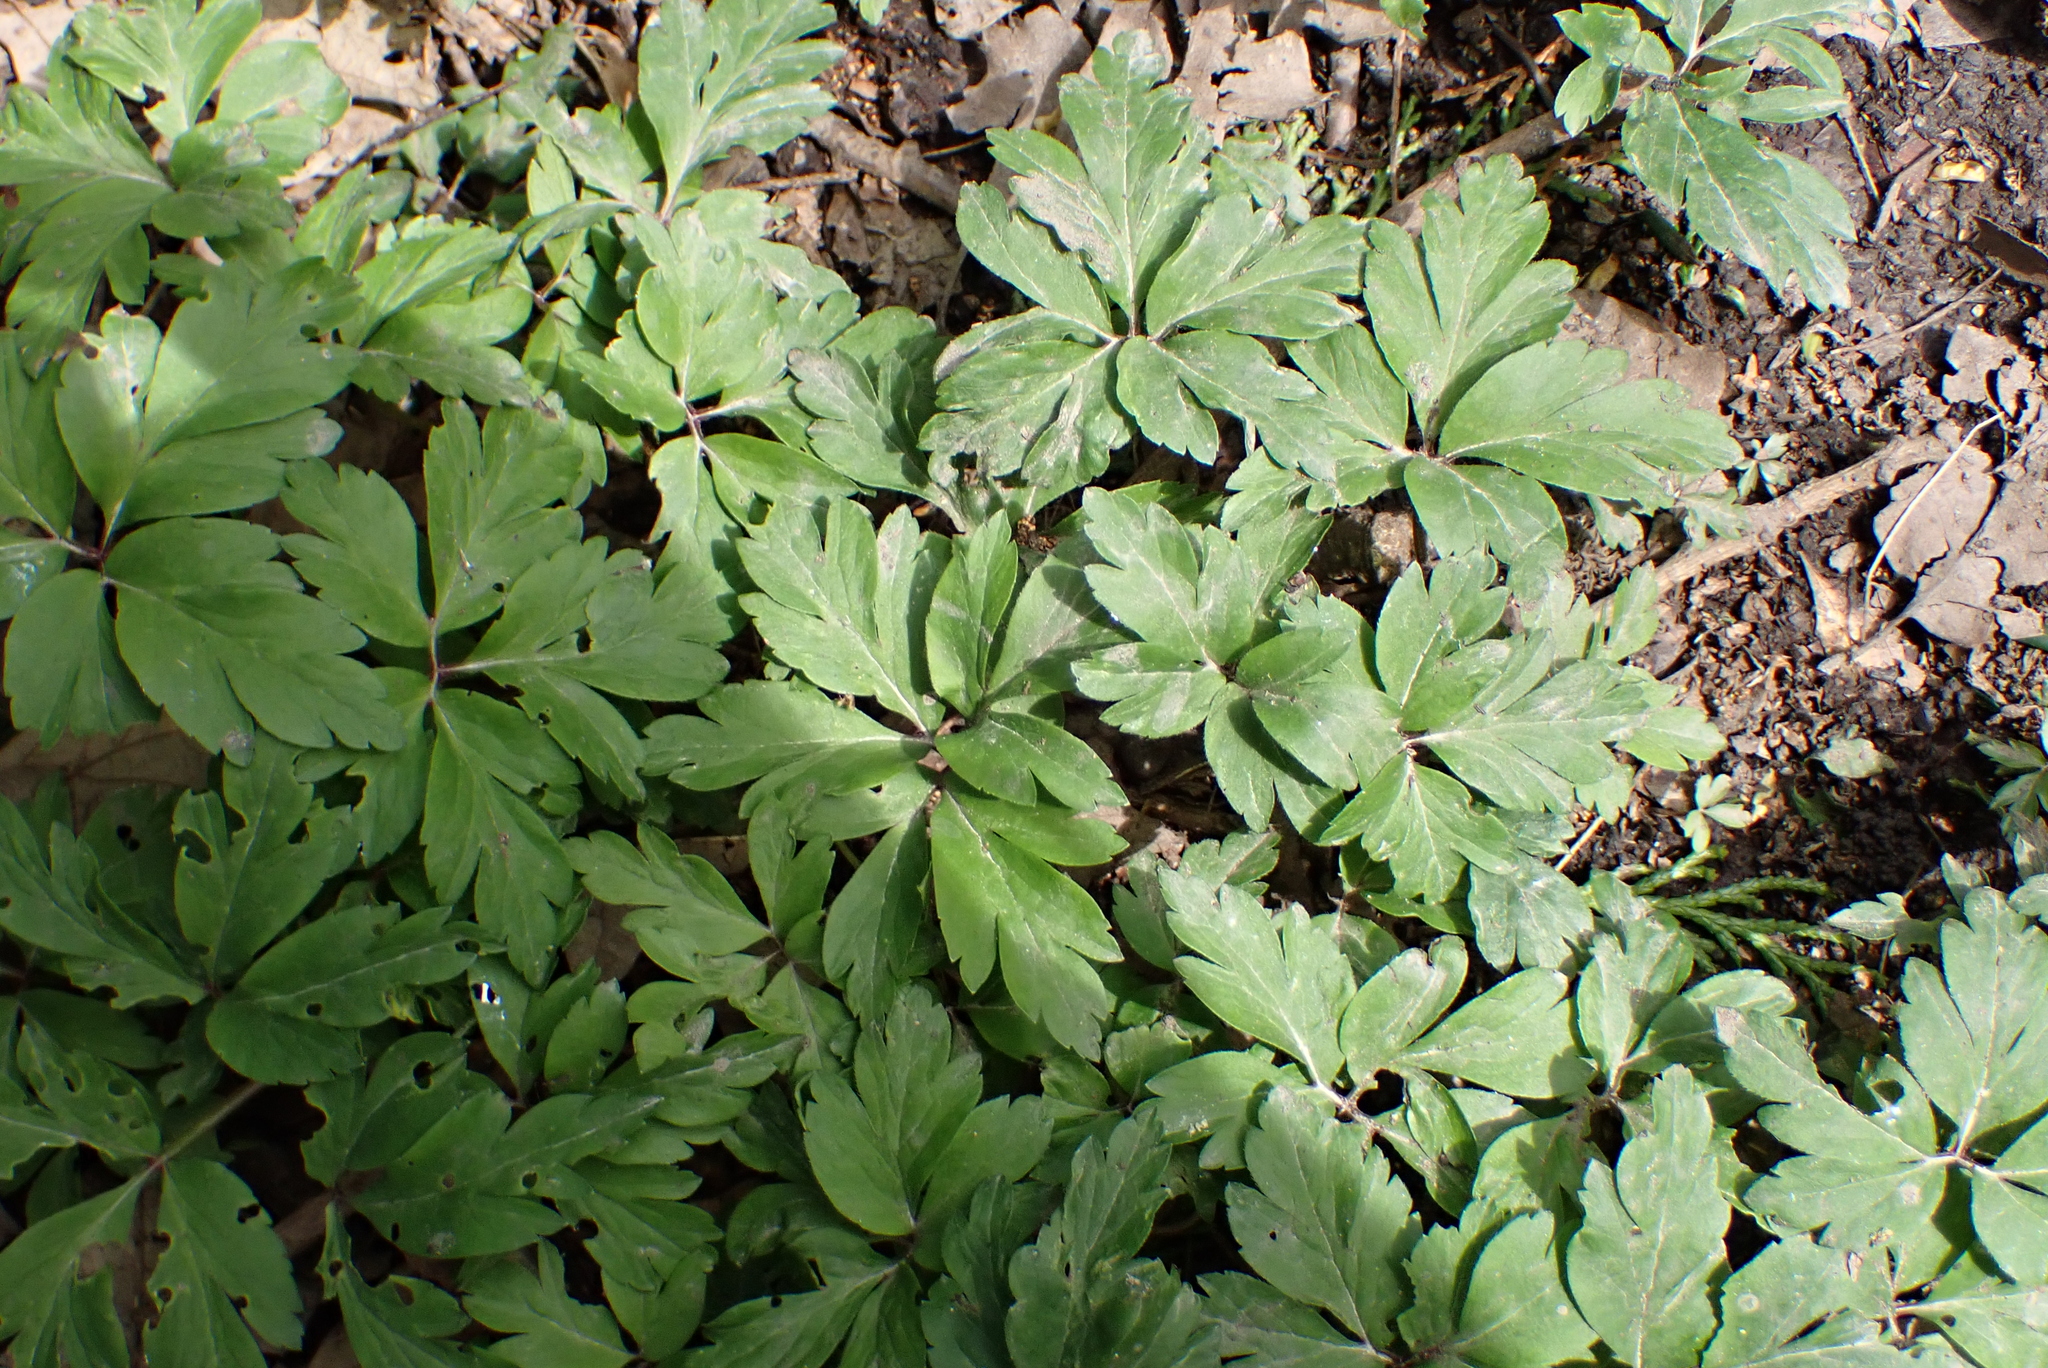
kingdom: Plantae
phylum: Tracheophyta
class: Magnoliopsida
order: Ranunculales
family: Ranunculaceae
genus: Anemone
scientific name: Anemone nemorosa
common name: Wood anemone
